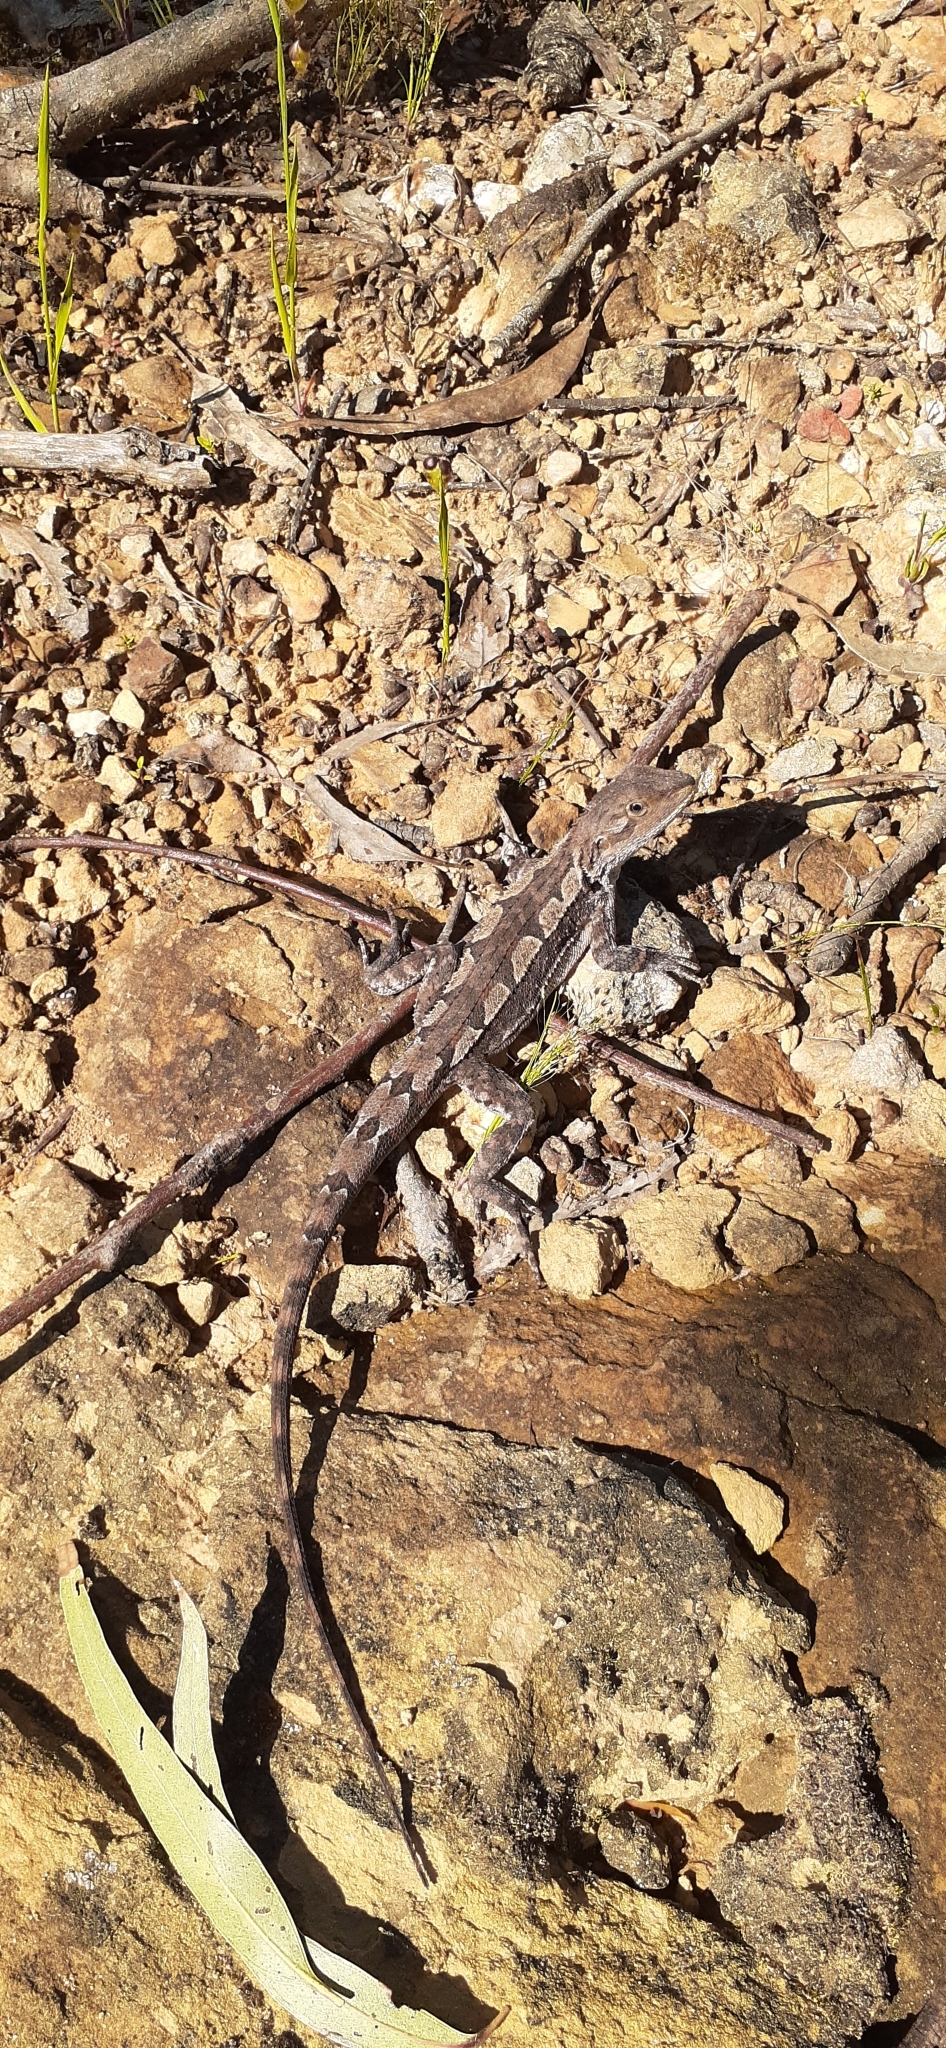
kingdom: Animalia
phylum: Chordata
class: Squamata
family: Agamidae
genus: Amphibolurus
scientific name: Amphibolurus muricatus
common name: Jacky lizard
